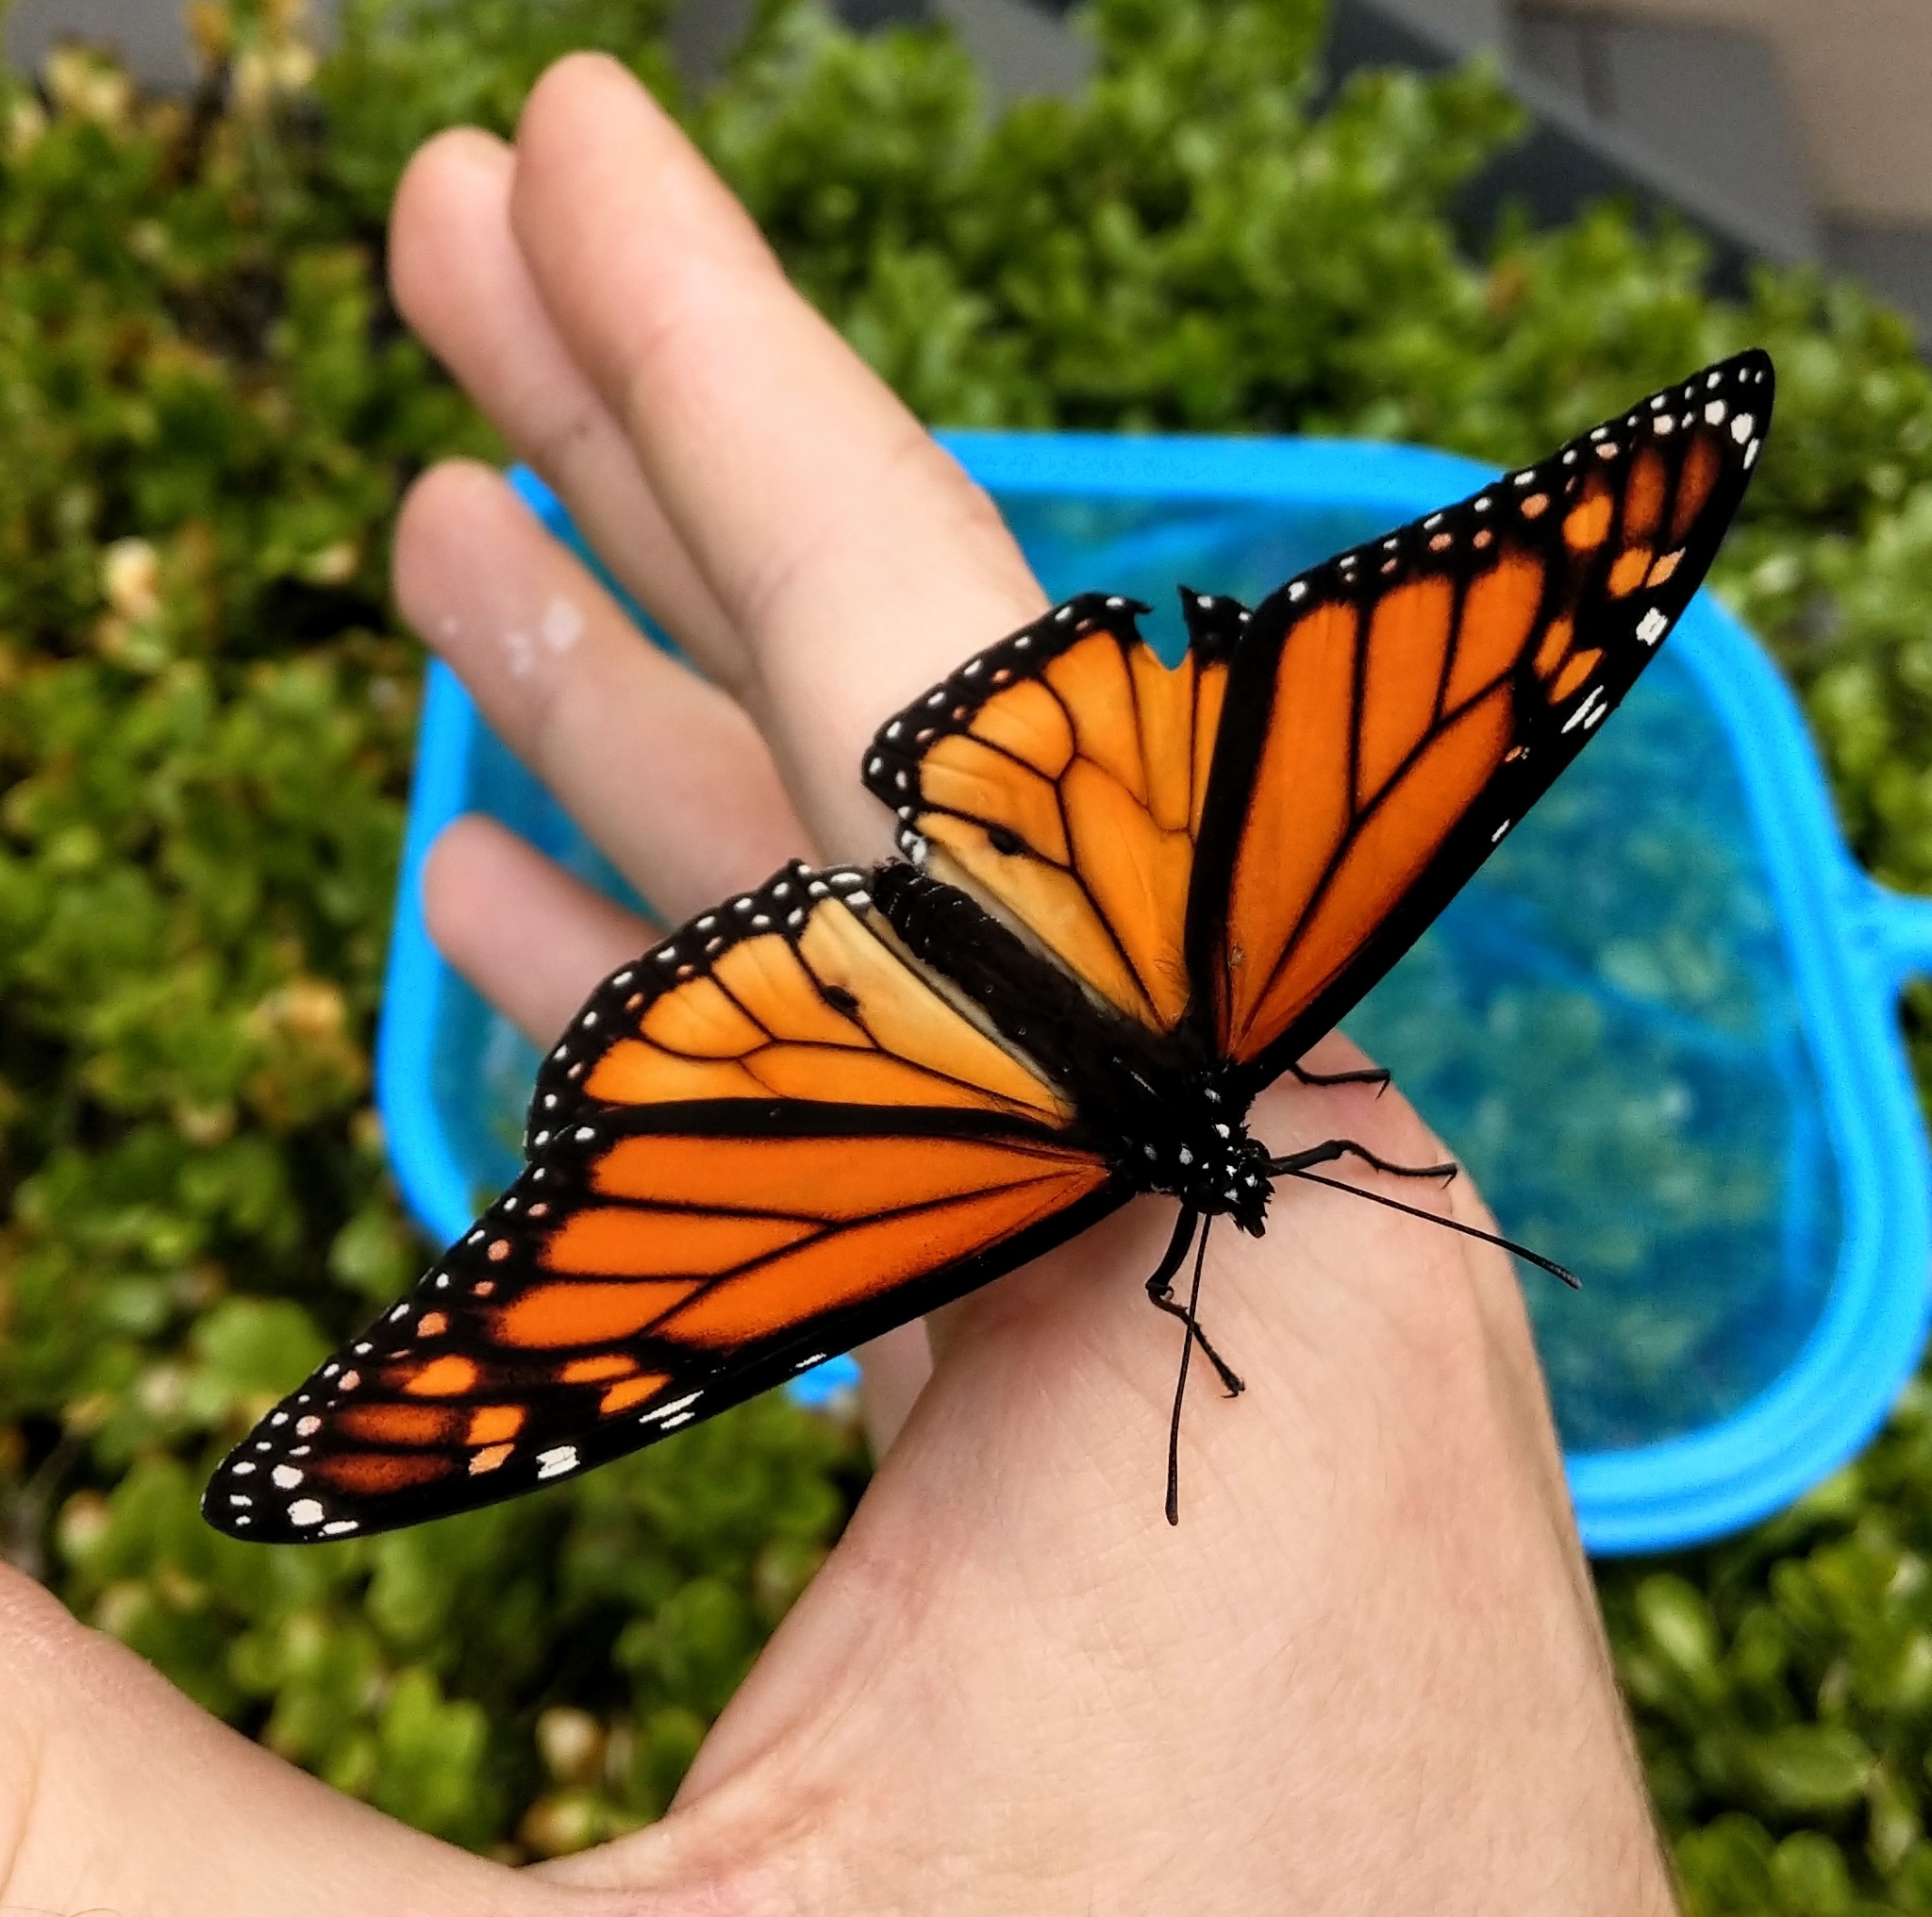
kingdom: Animalia
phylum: Arthropoda
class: Insecta
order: Lepidoptera
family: Nymphalidae
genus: Danaus
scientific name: Danaus plexippus
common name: Monarch
